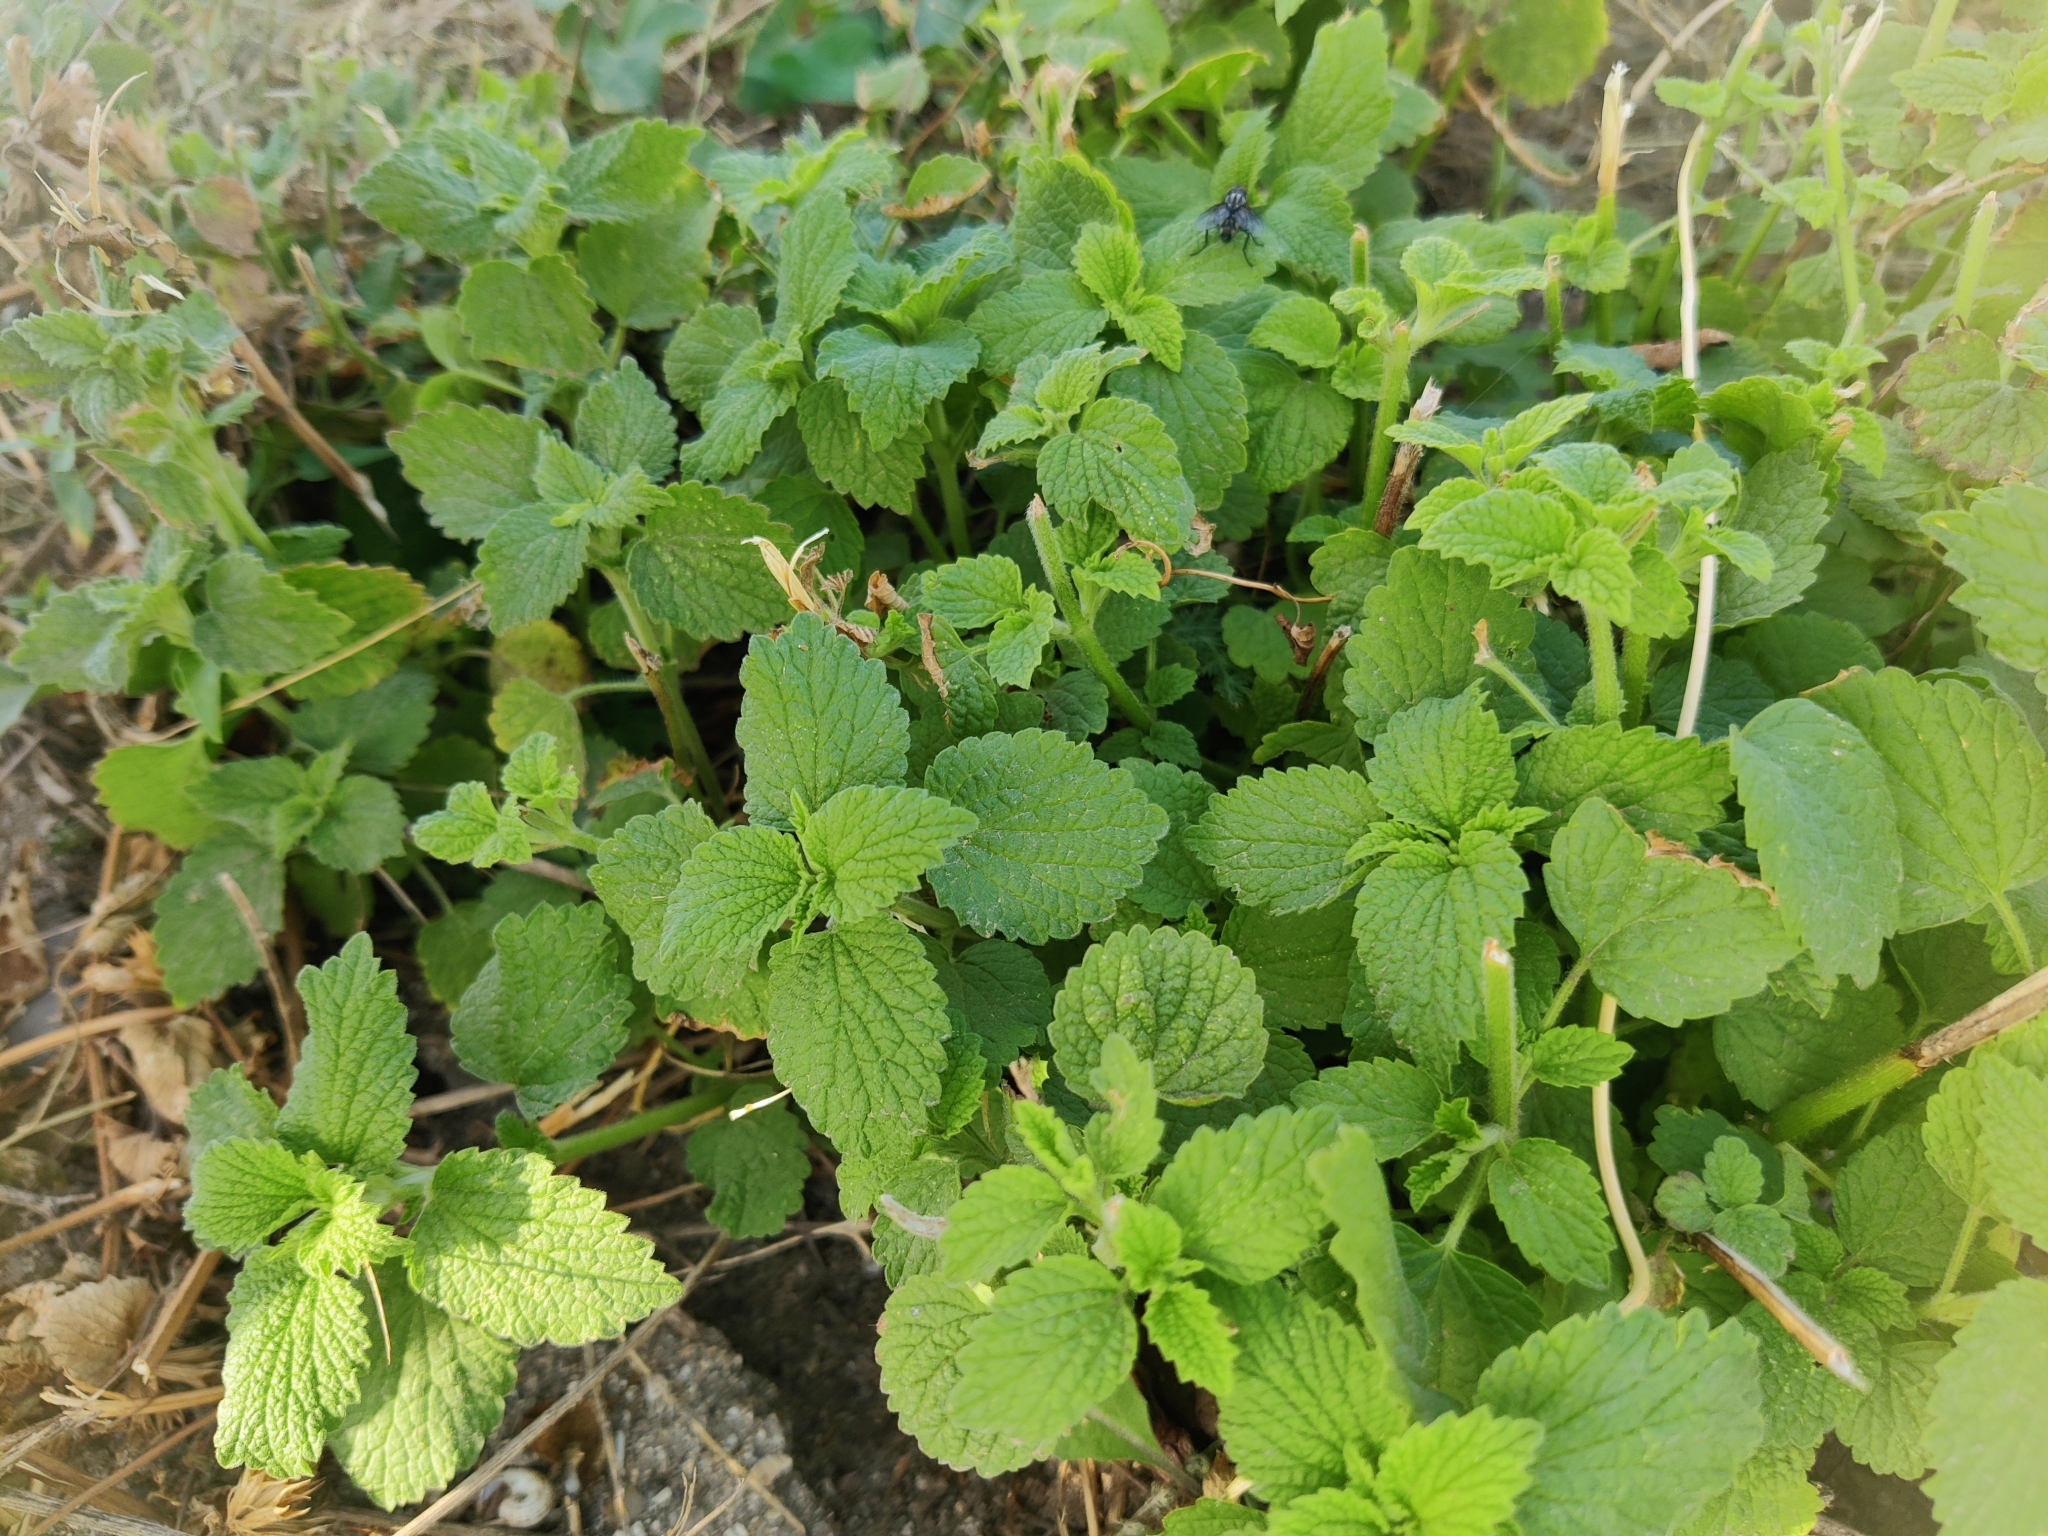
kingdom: Plantae
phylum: Tracheophyta
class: Magnoliopsida
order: Lamiales
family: Lamiaceae
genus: Ballota
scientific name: Ballota nigra
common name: Black horehound
